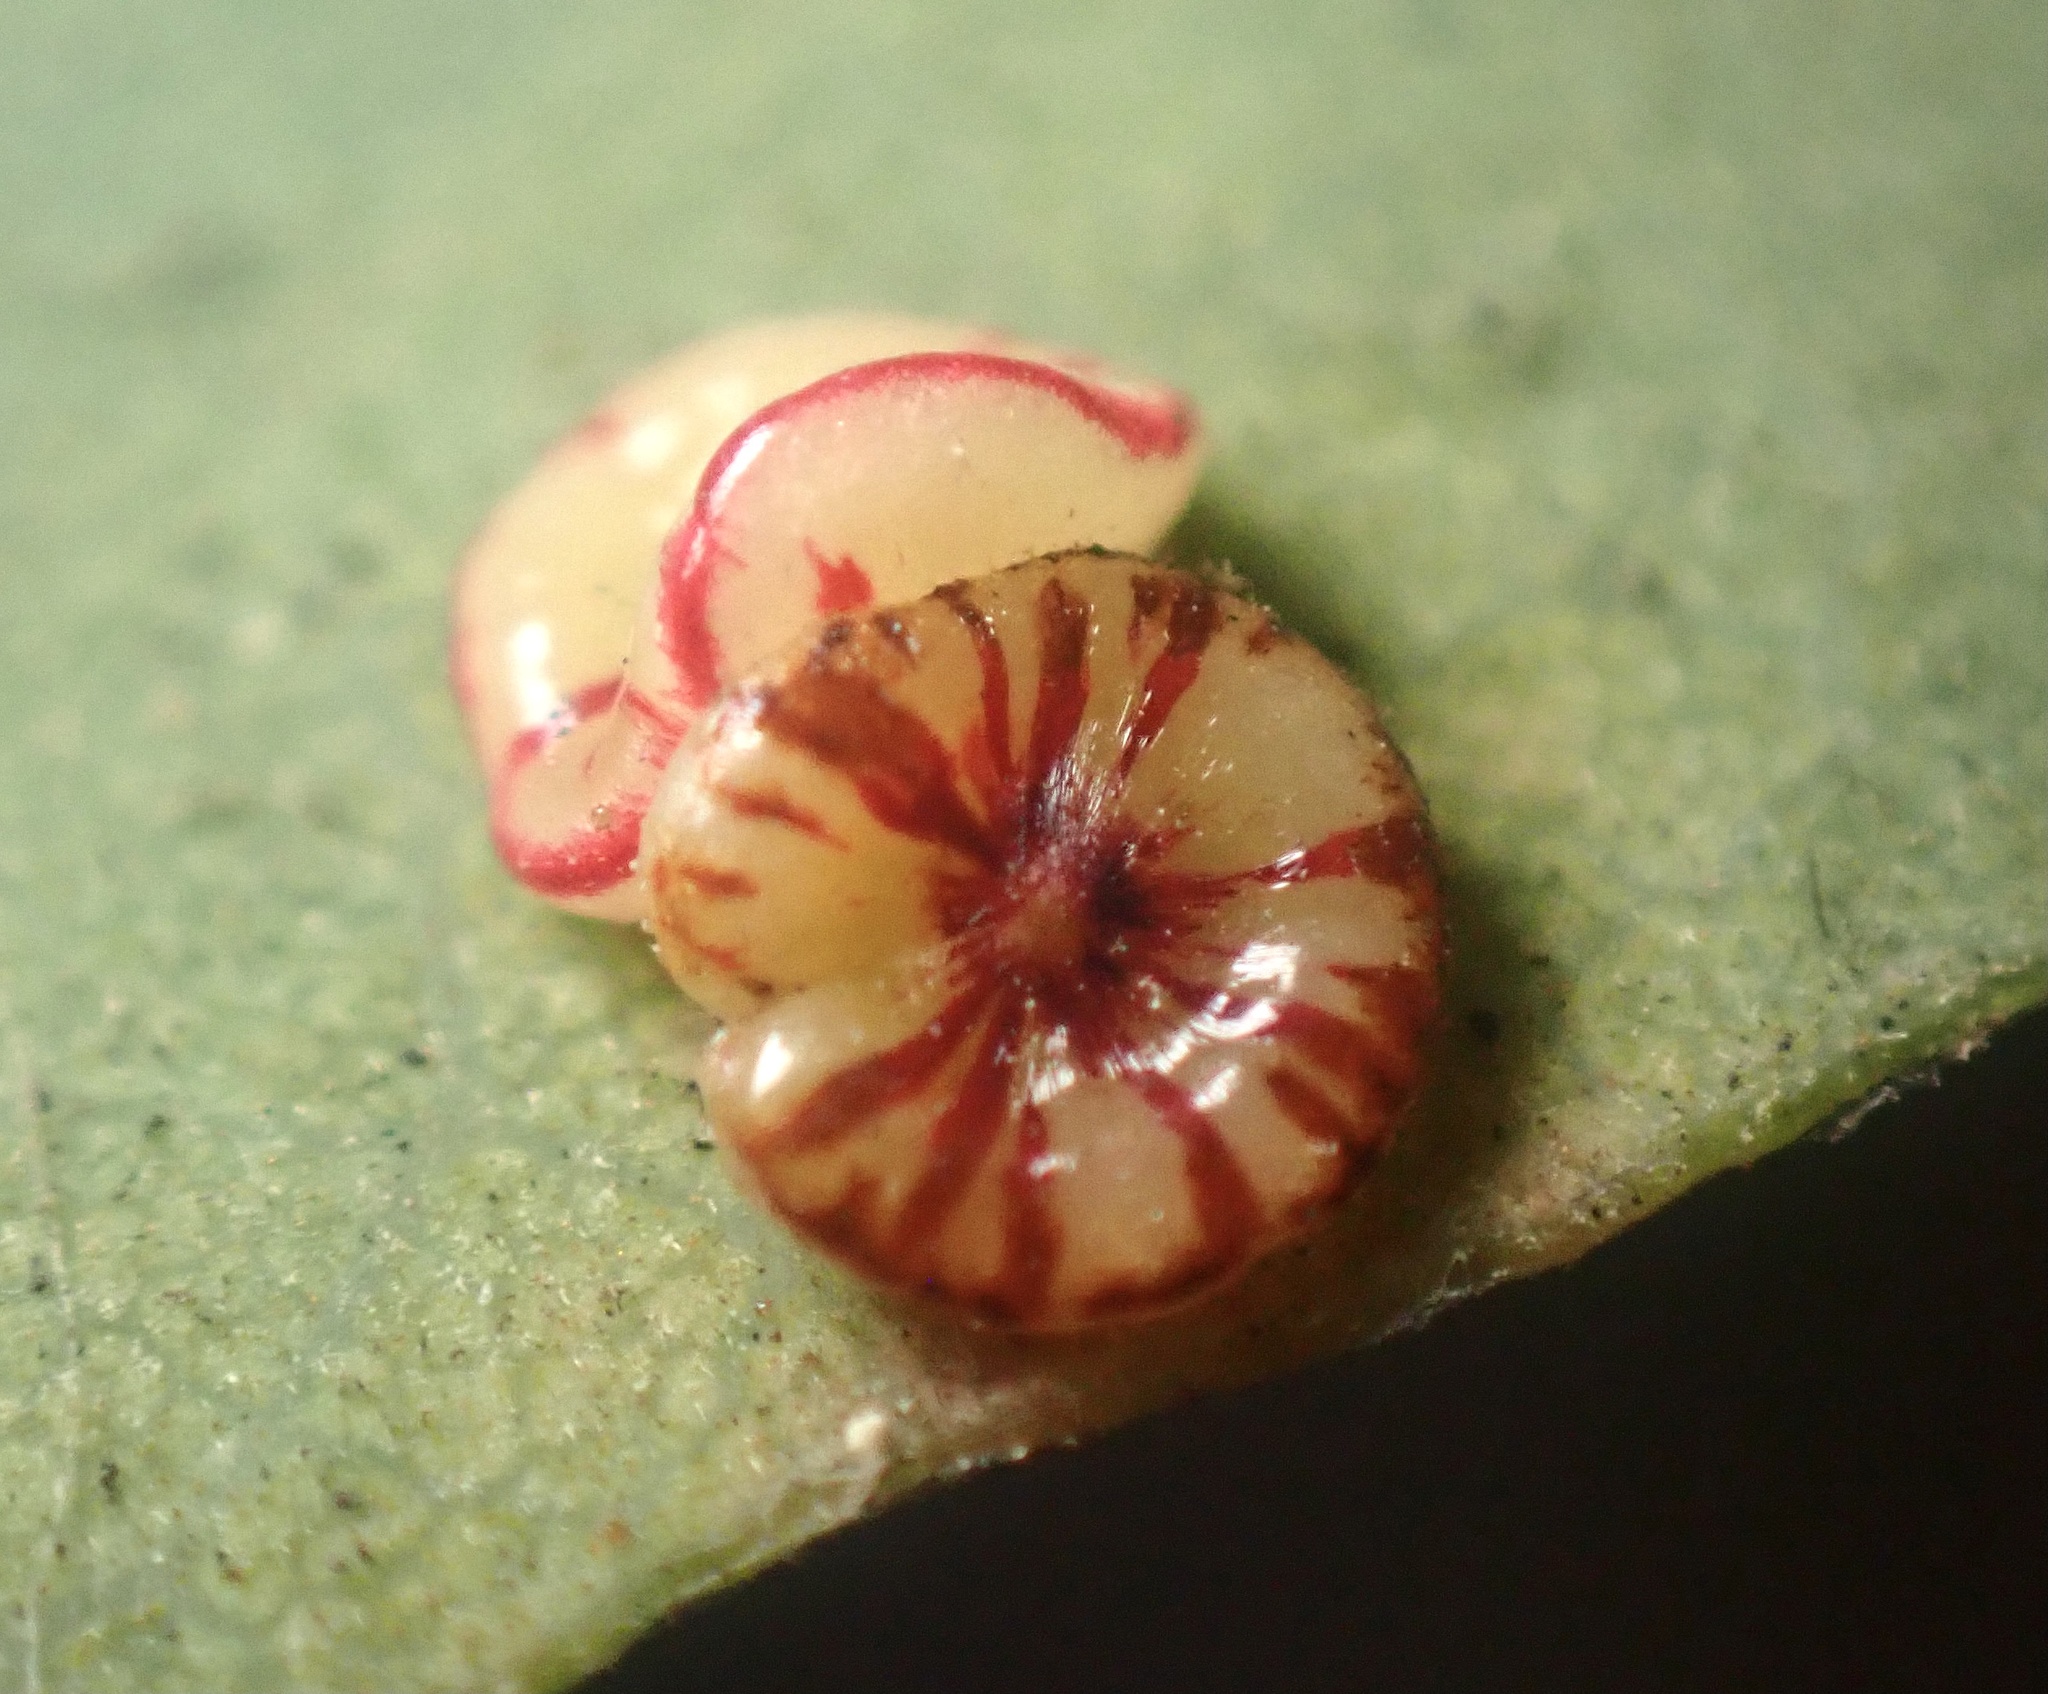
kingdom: Animalia
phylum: Arthropoda
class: Insecta
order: Hymenoptera
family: Cynipidae
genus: Andricus
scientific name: Andricus
